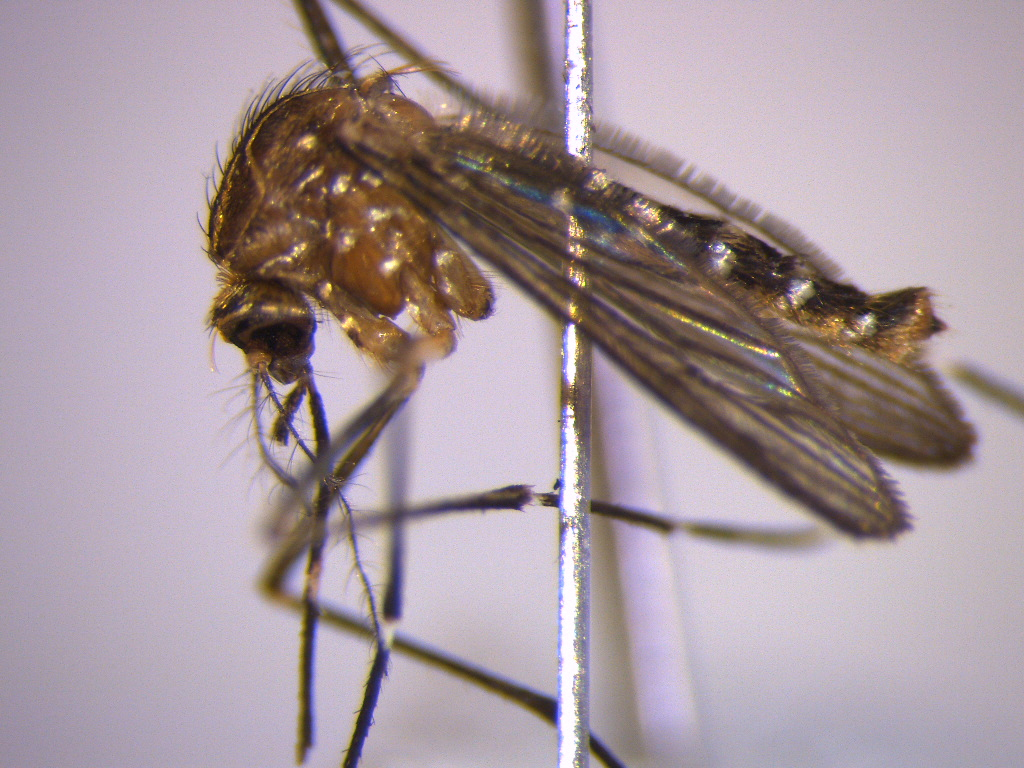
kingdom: Animalia
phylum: Arthropoda
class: Insecta
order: Diptera
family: Culicidae
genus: Aedes
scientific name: Aedes notoscriptus
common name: Australian backyard mosquito
